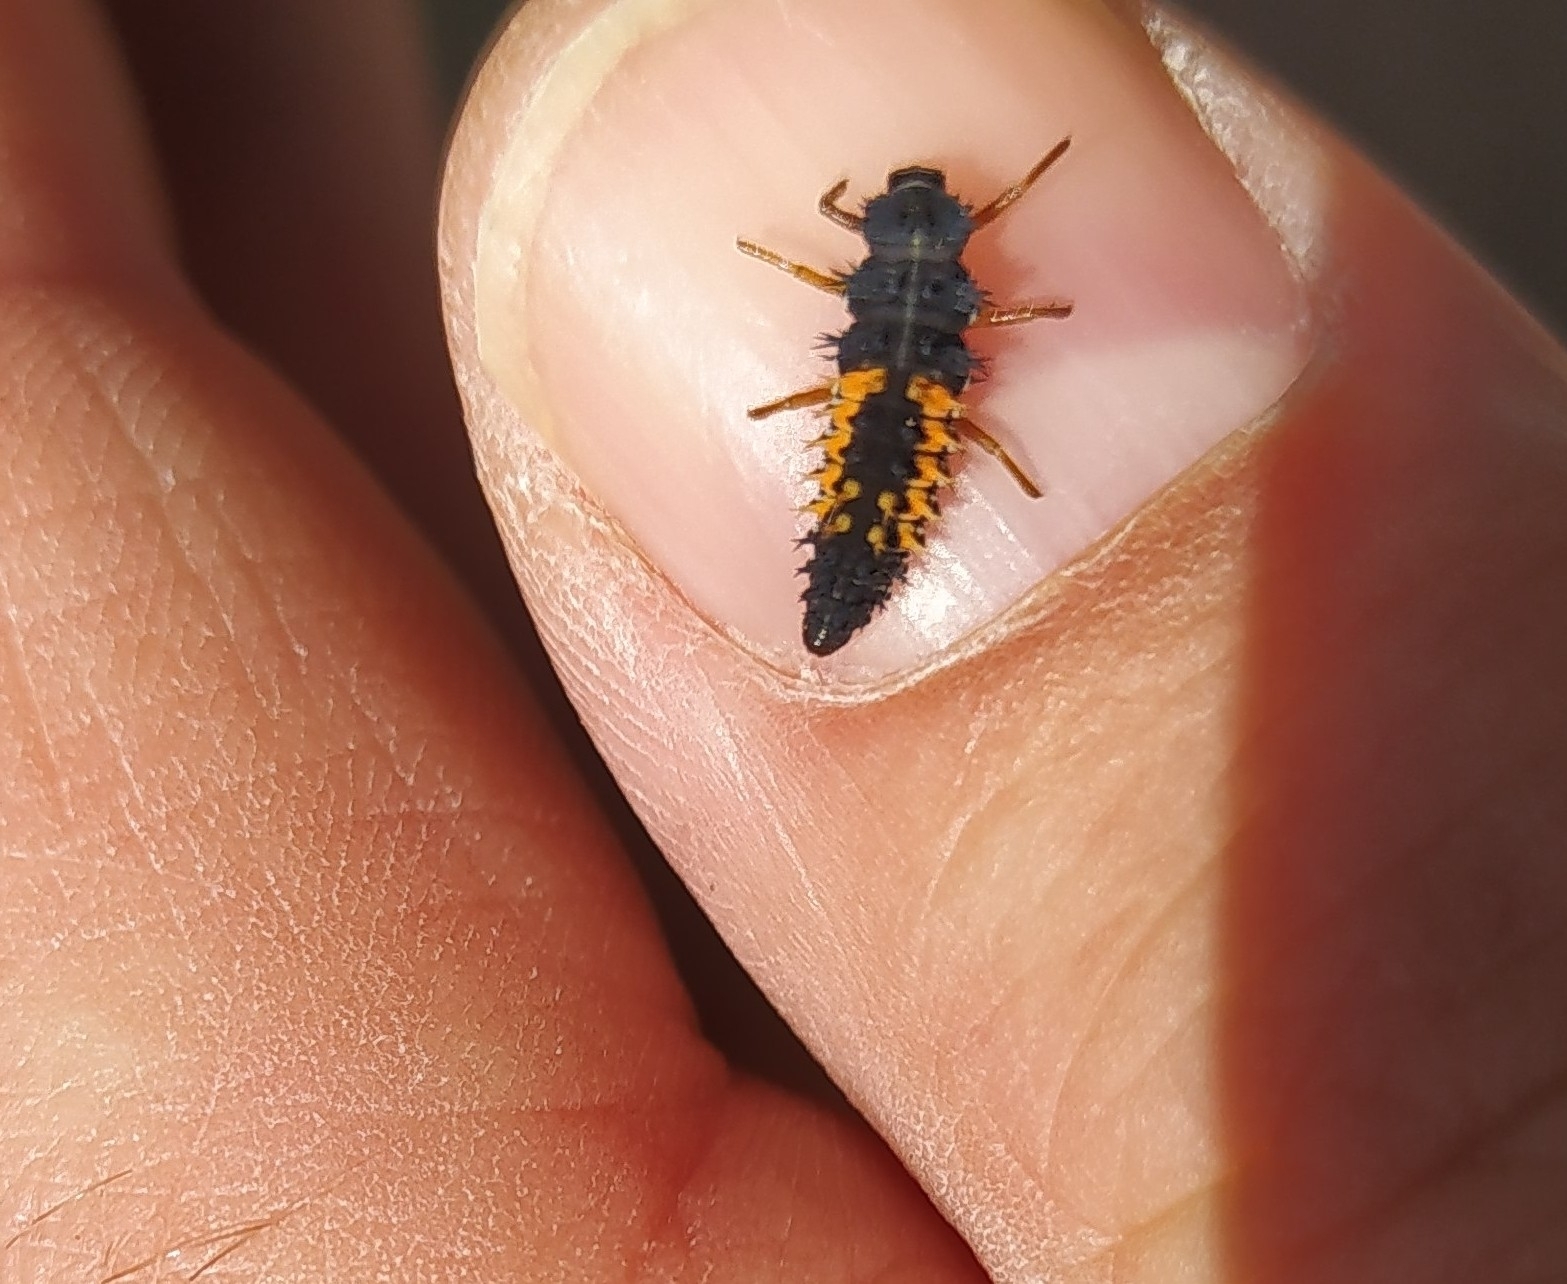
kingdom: Animalia
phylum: Arthropoda
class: Insecta
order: Coleoptera
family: Coccinellidae
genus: Harmonia
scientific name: Harmonia axyridis
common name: Harlequin ladybird
